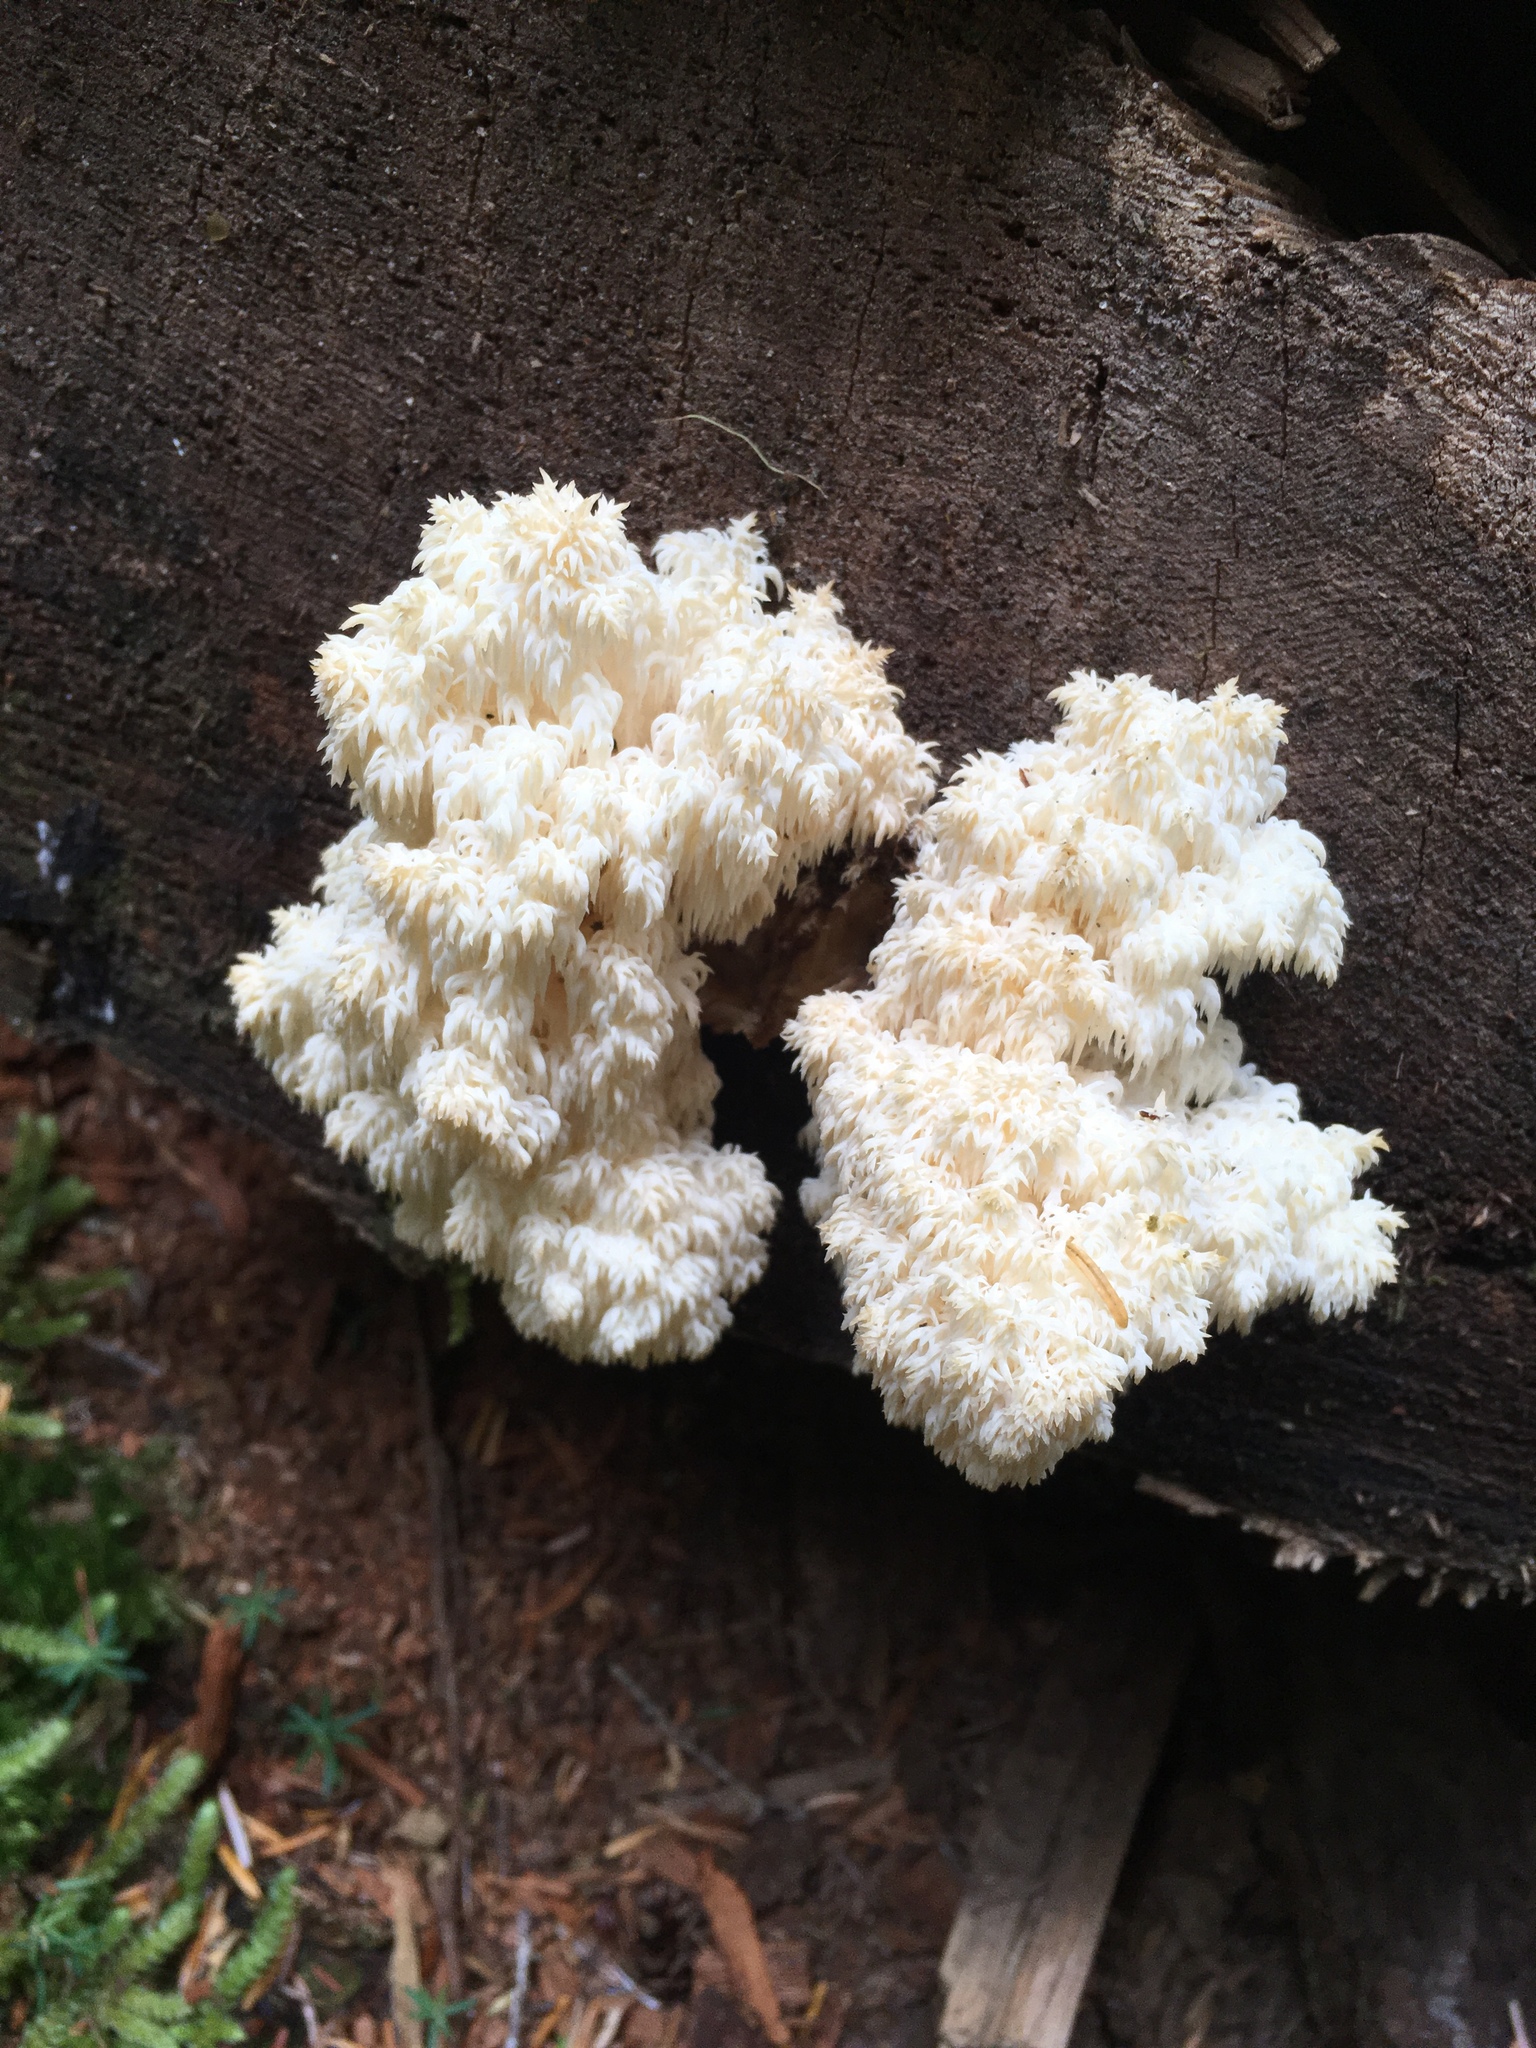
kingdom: Fungi
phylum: Basidiomycota
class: Agaricomycetes
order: Russulales
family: Hericiaceae
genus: Hericium
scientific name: Hericium abietis
